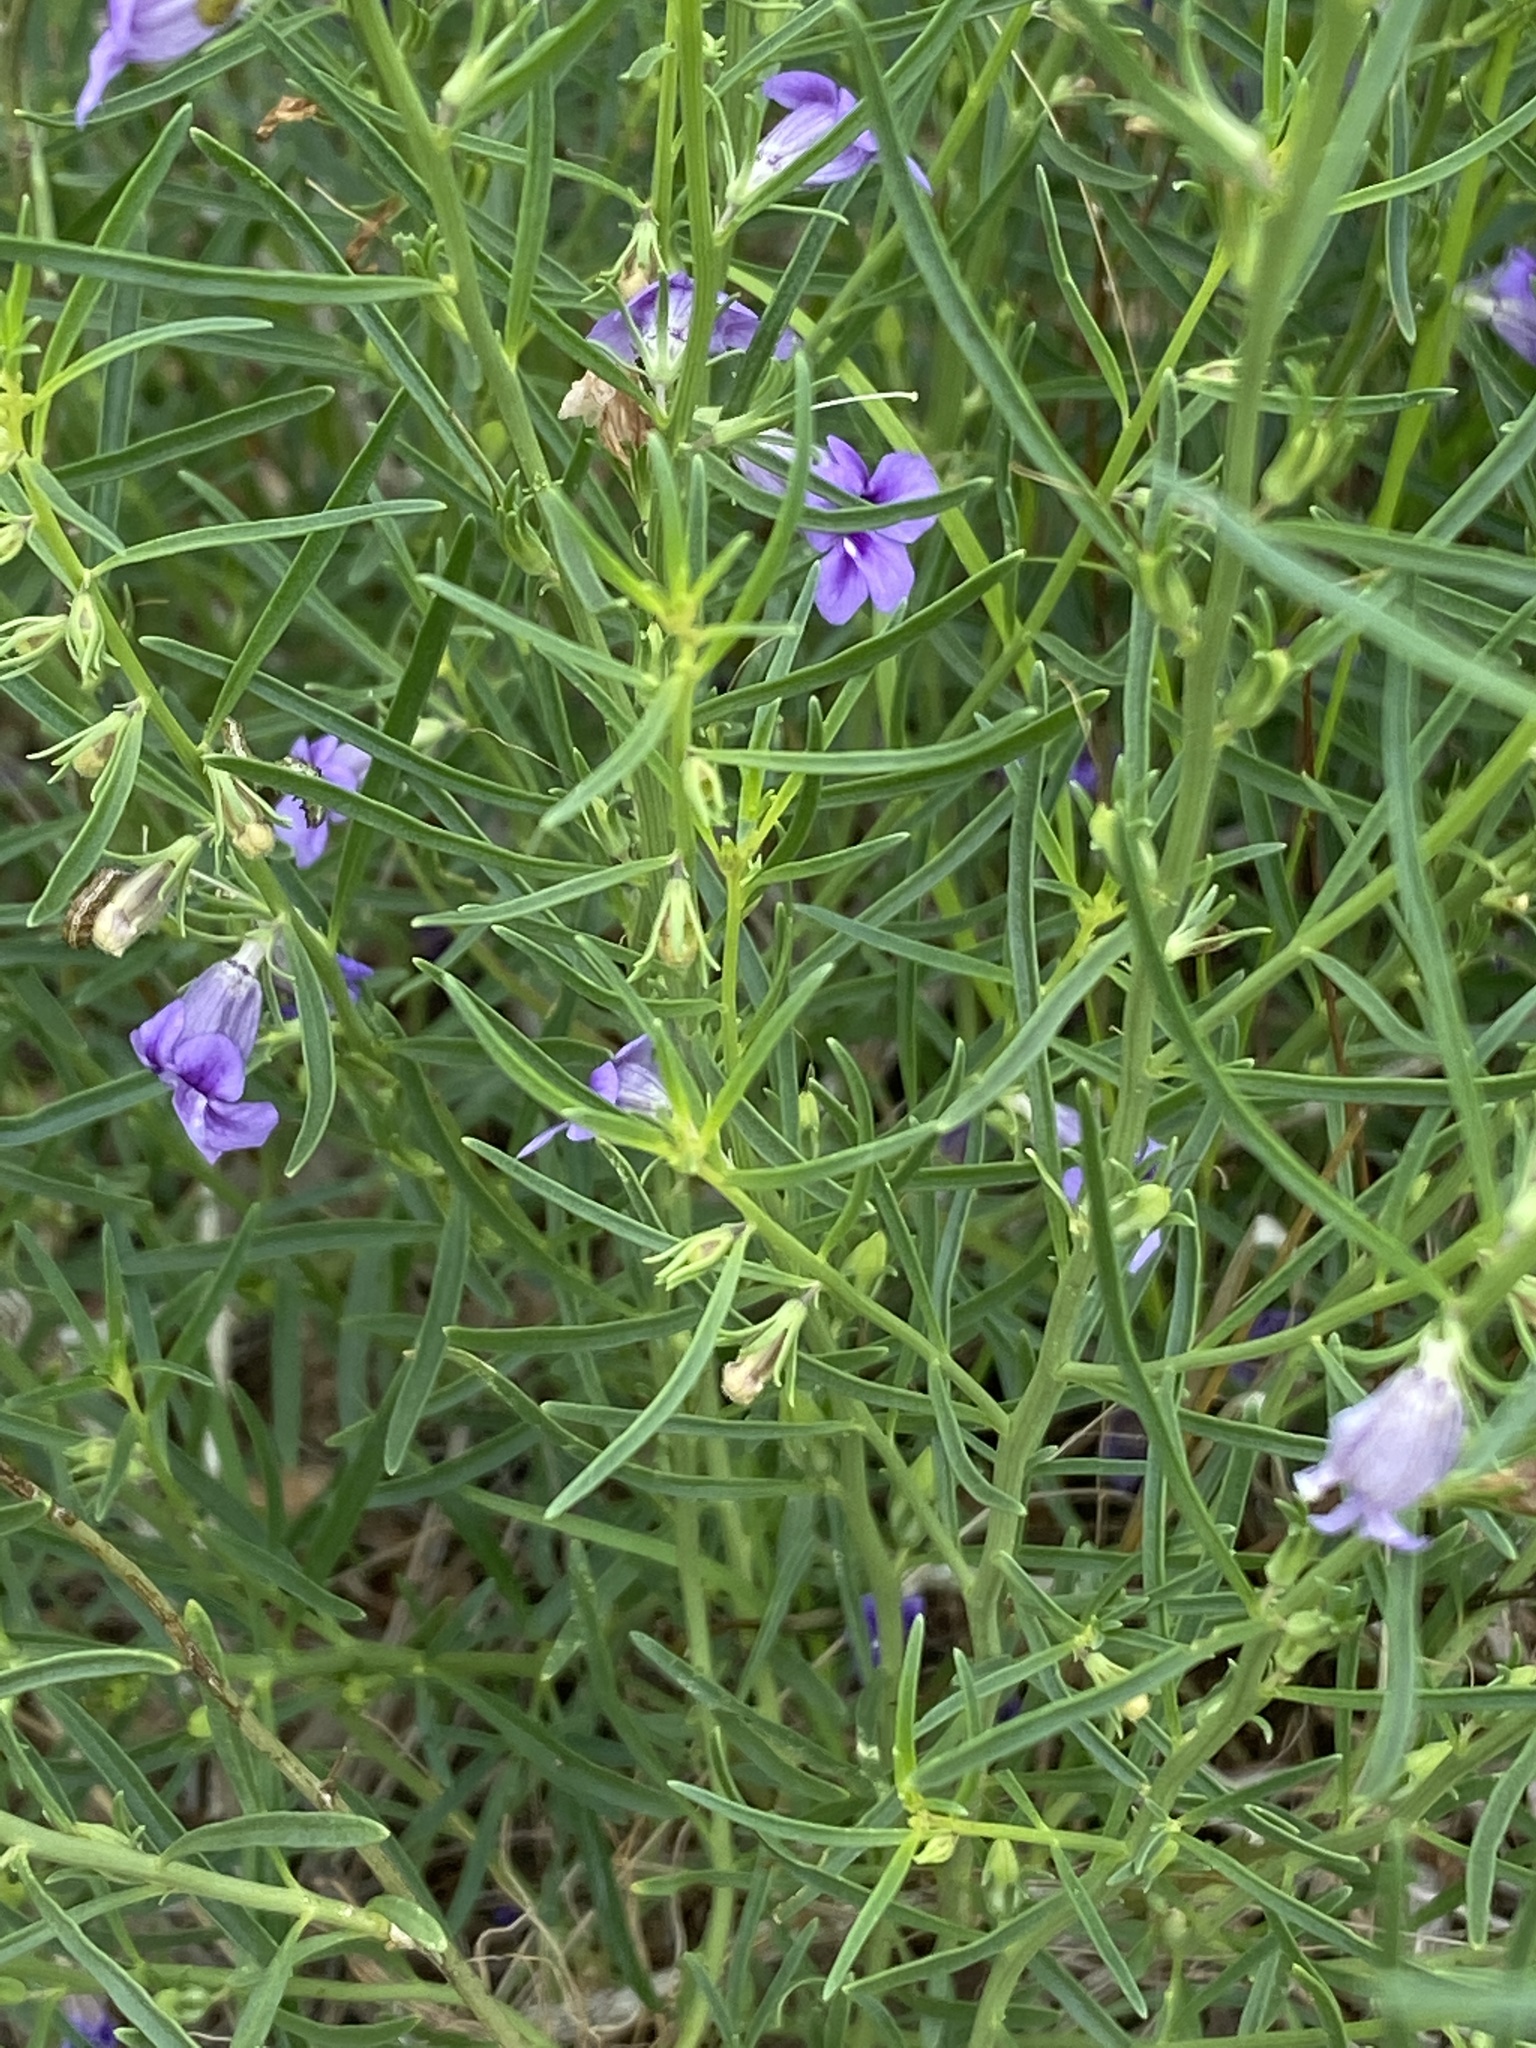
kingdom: Plantae
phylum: Tracheophyta
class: Magnoliopsida
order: Lamiales
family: Scrophulariaceae
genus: Peliostomum
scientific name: Peliostomum leucorrhizum
